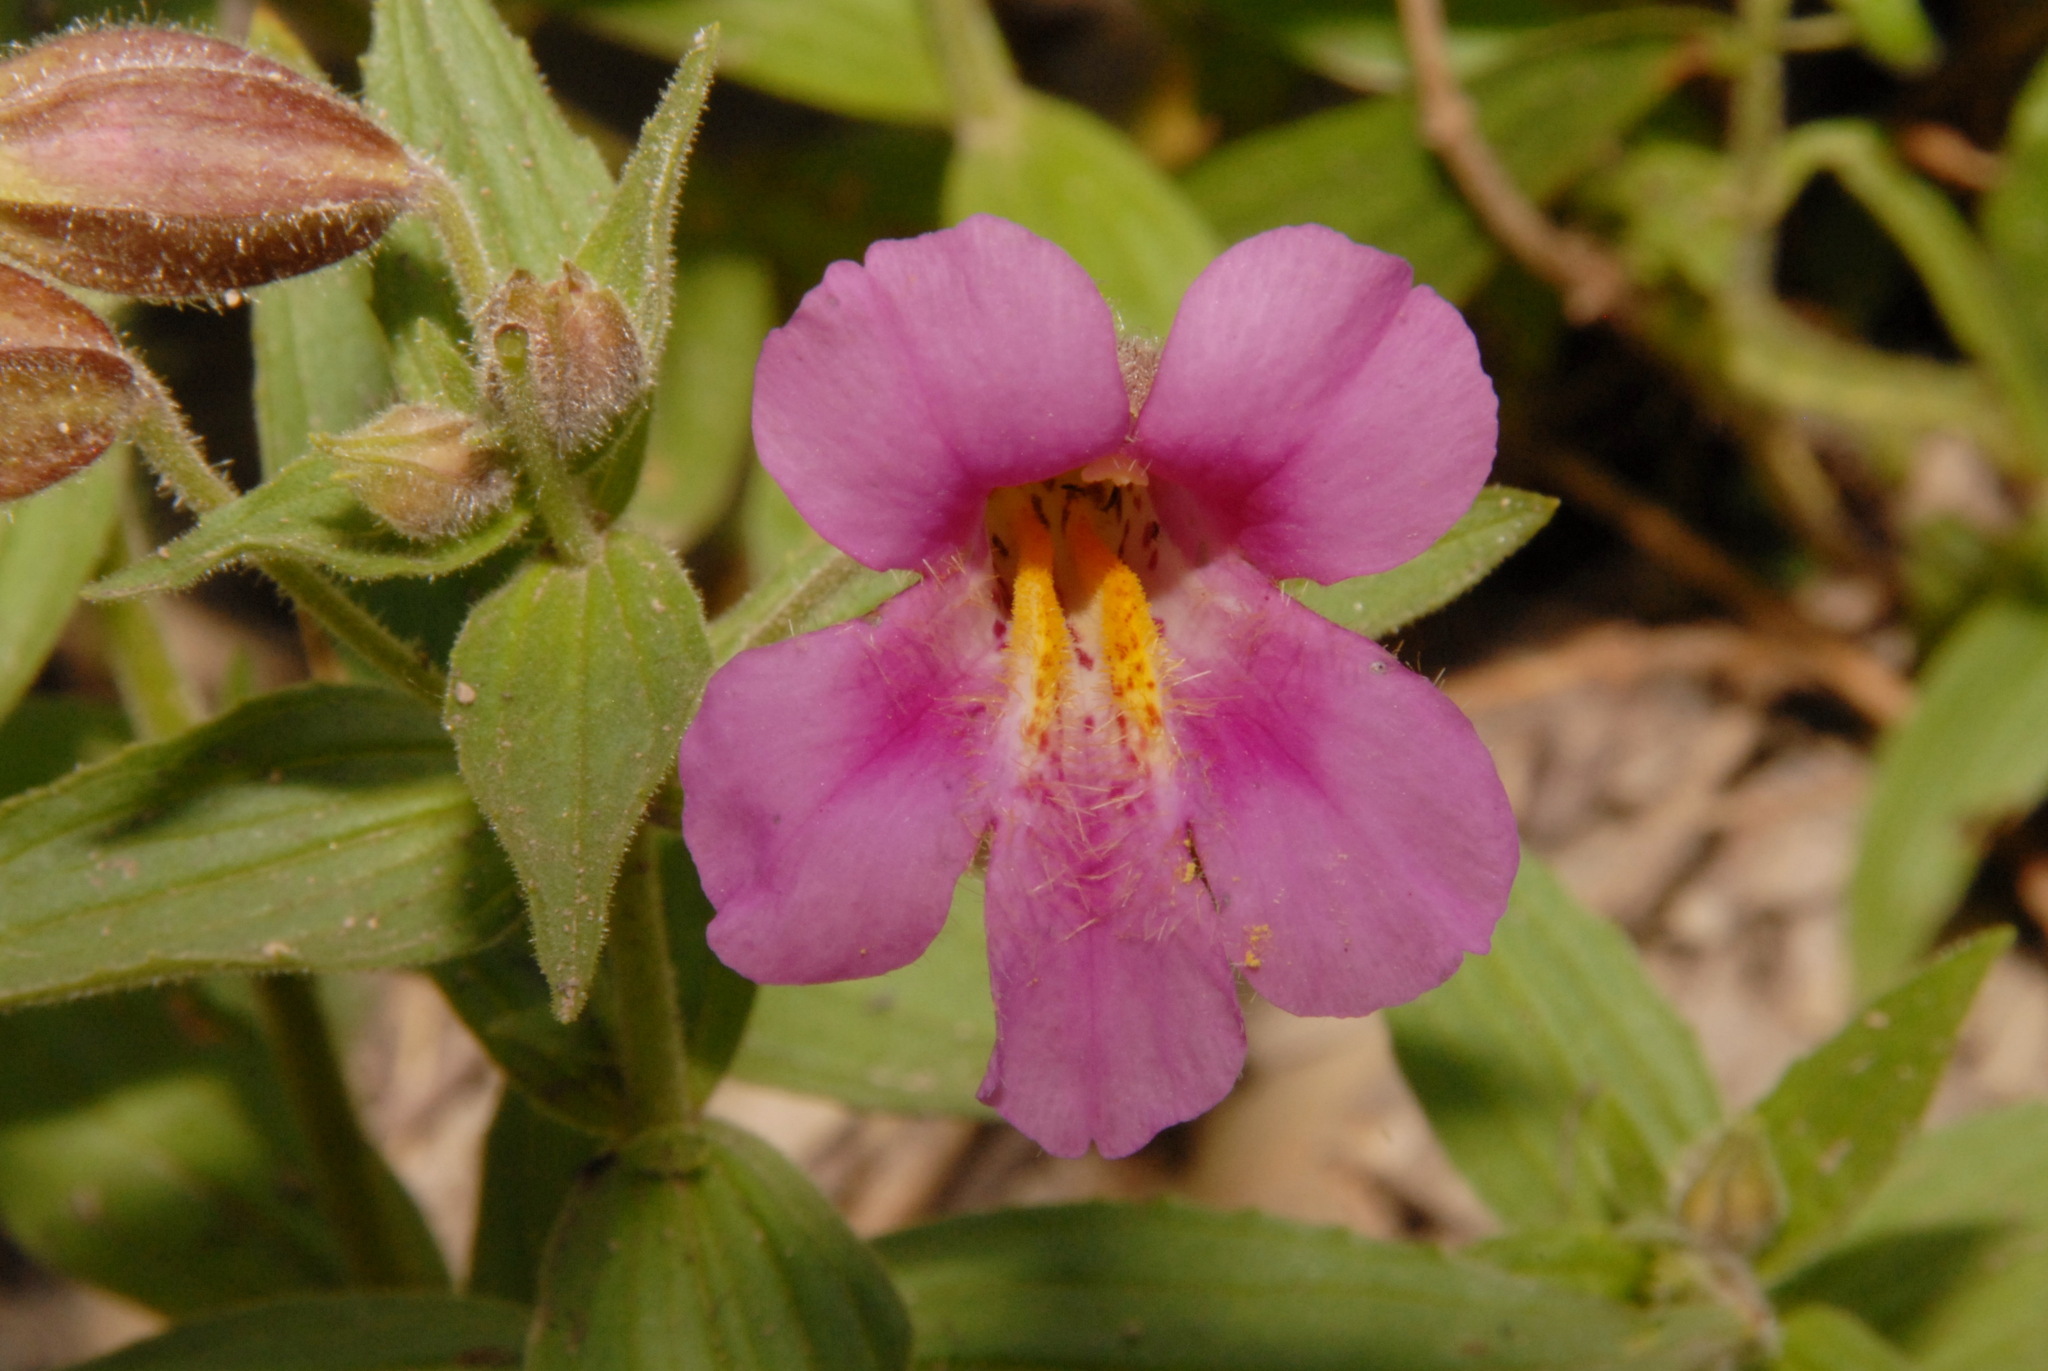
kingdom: Plantae
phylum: Tracheophyta
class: Magnoliopsida
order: Lamiales
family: Phrymaceae
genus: Erythranthe
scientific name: Erythranthe lewisii
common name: Lewis's monkey-flower
